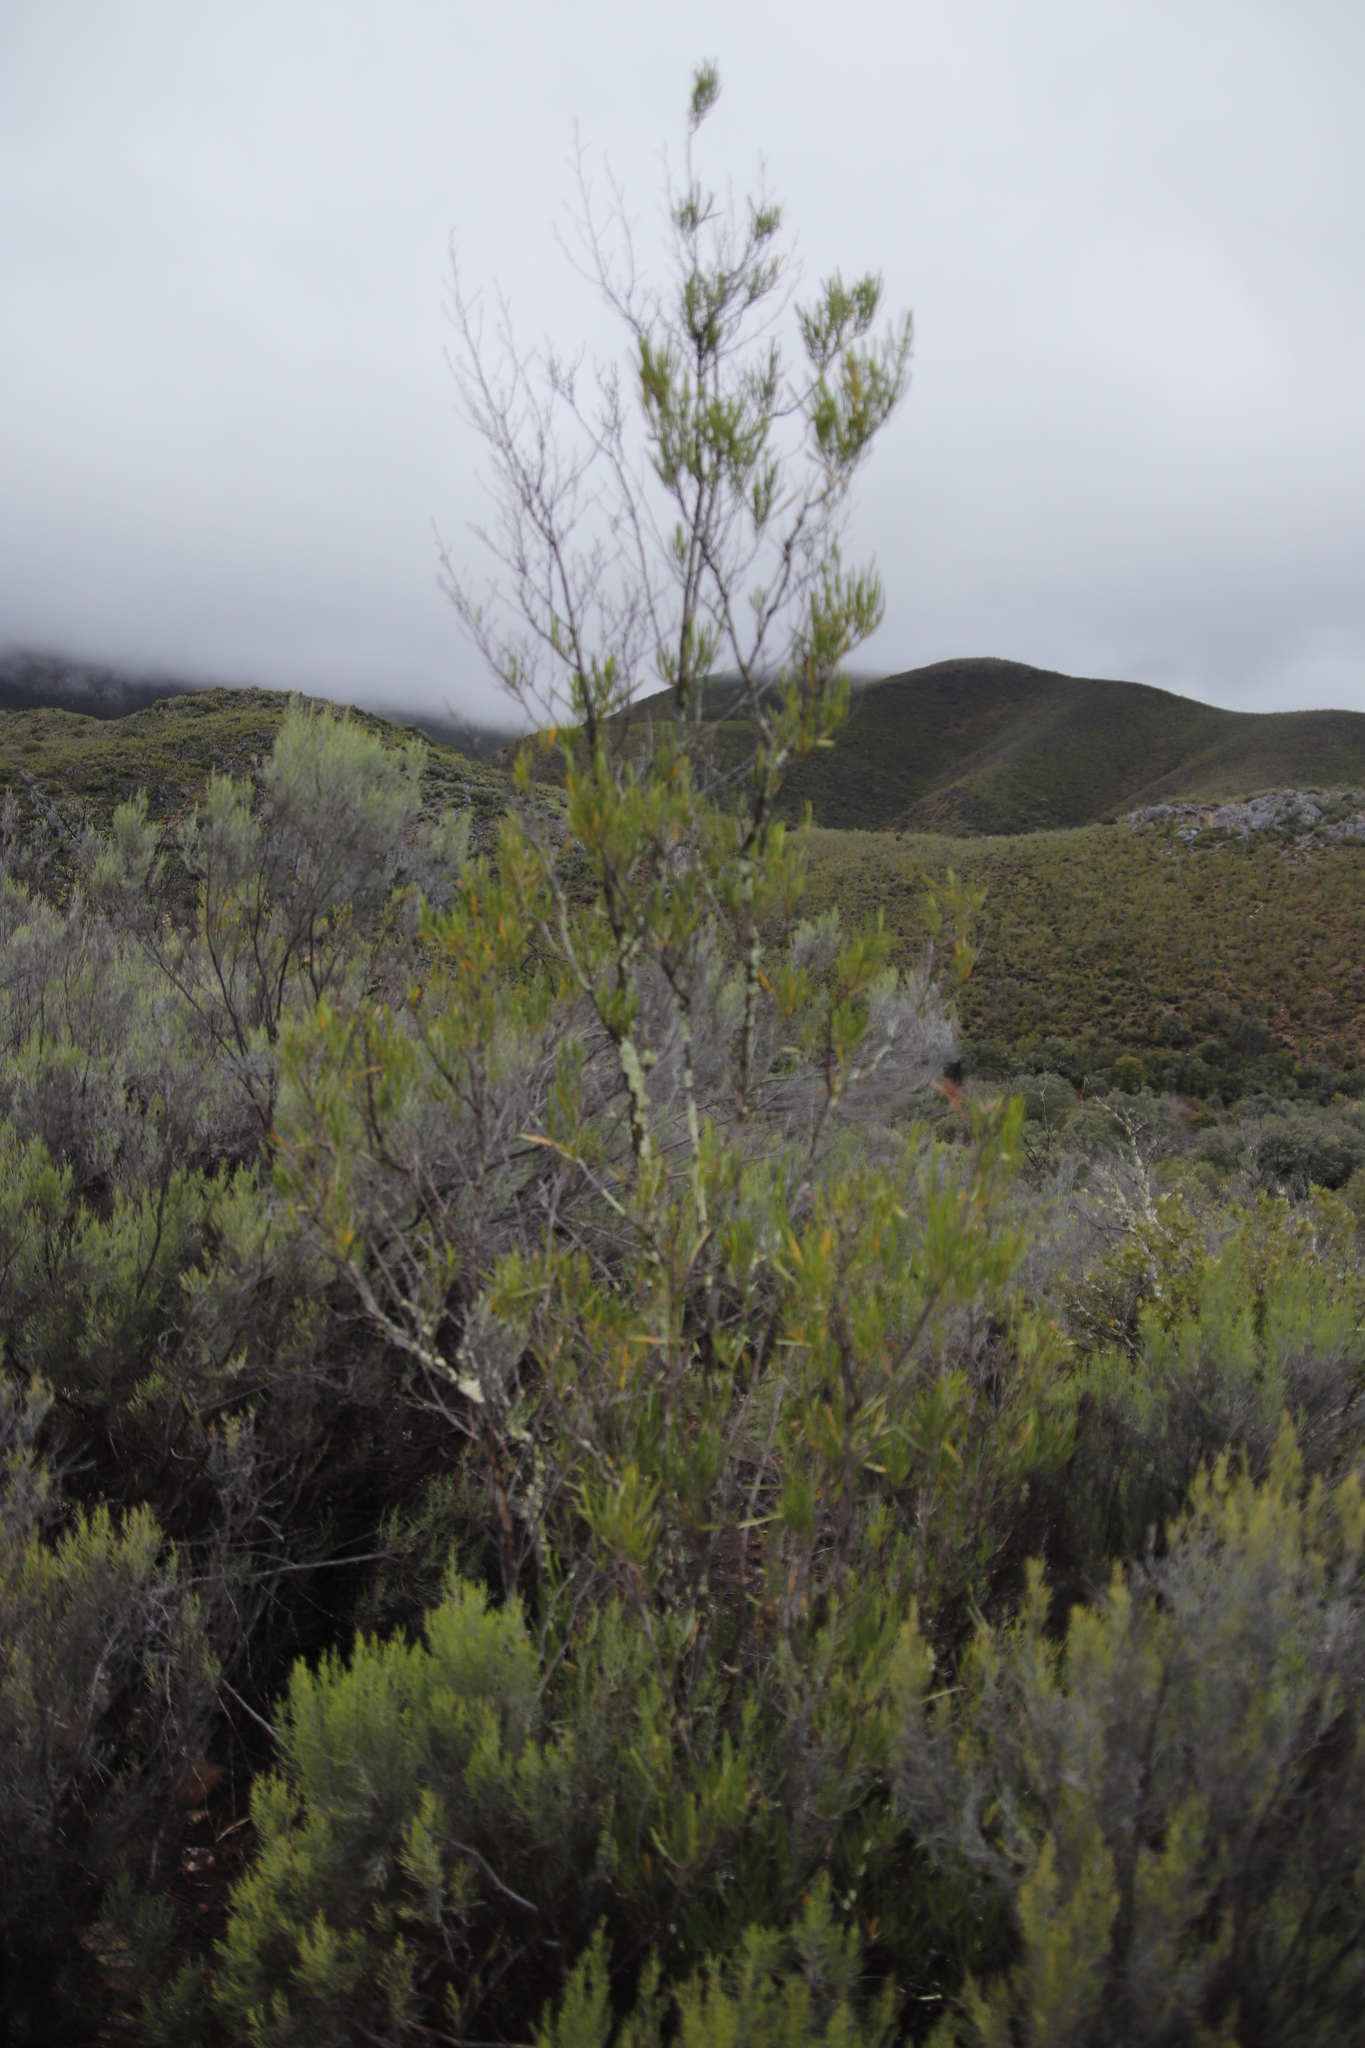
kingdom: Plantae
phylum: Tracheophyta
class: Magnoliopsida
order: Sapindales
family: Sapindaceae
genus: Dodonaea
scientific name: Dodonaea viscosa
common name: Hopbush
